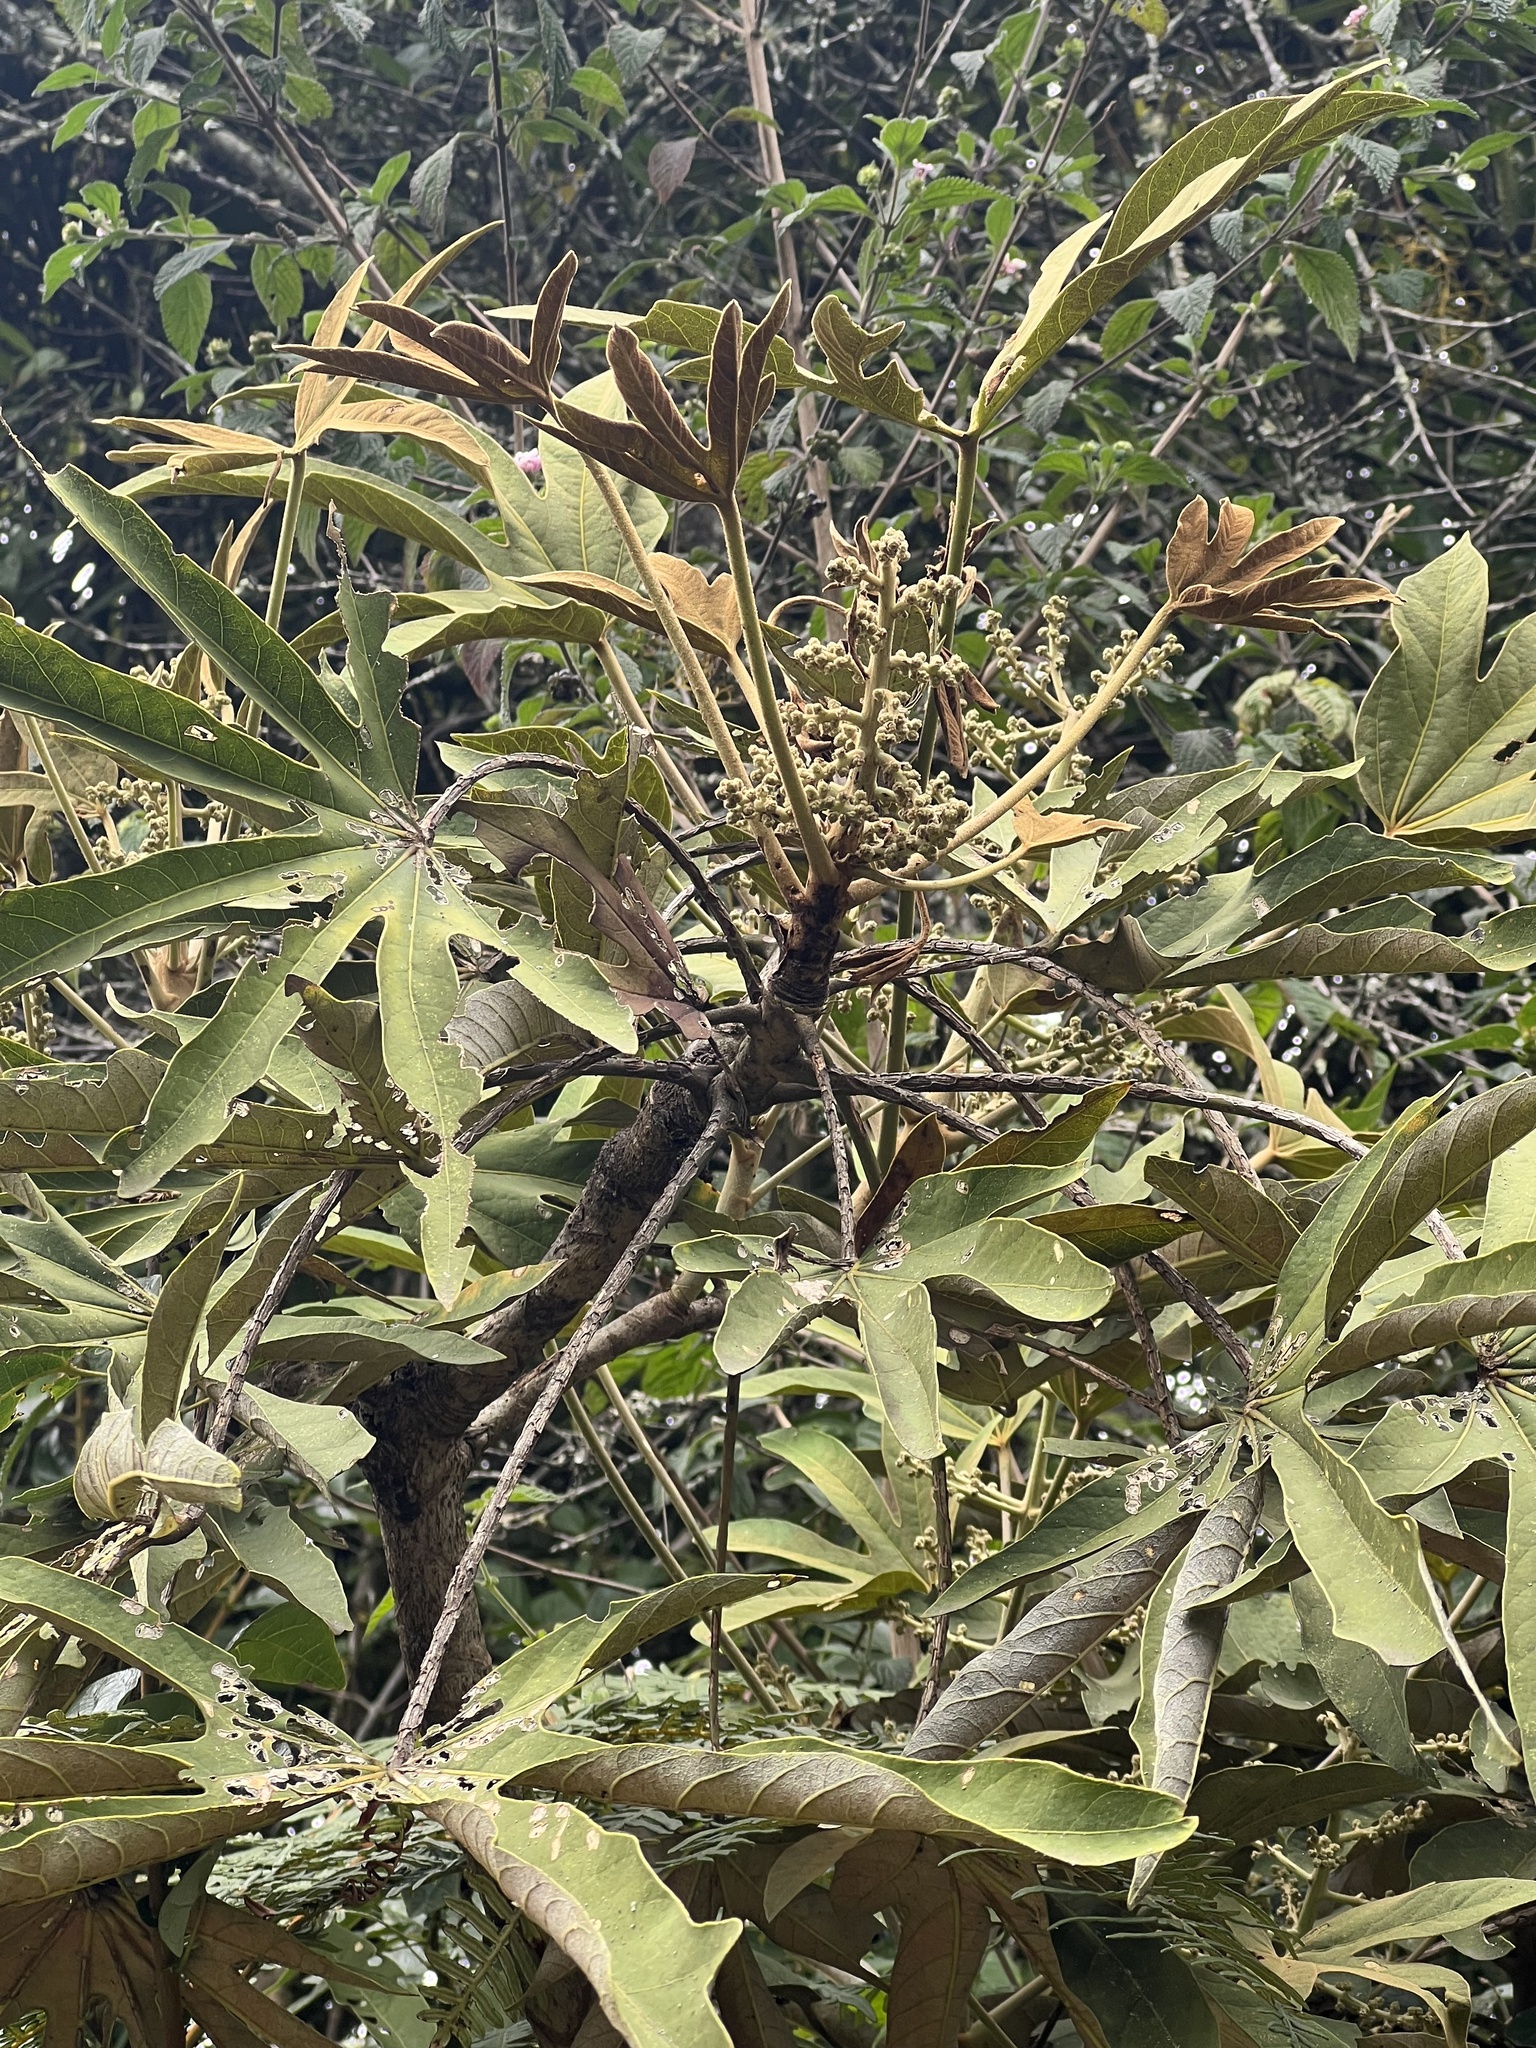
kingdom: Plantae
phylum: Tracheophyta
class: Magnoliopsida
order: Apiales
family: Araliaceae
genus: Oreopanax
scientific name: Oreopanax incisus
